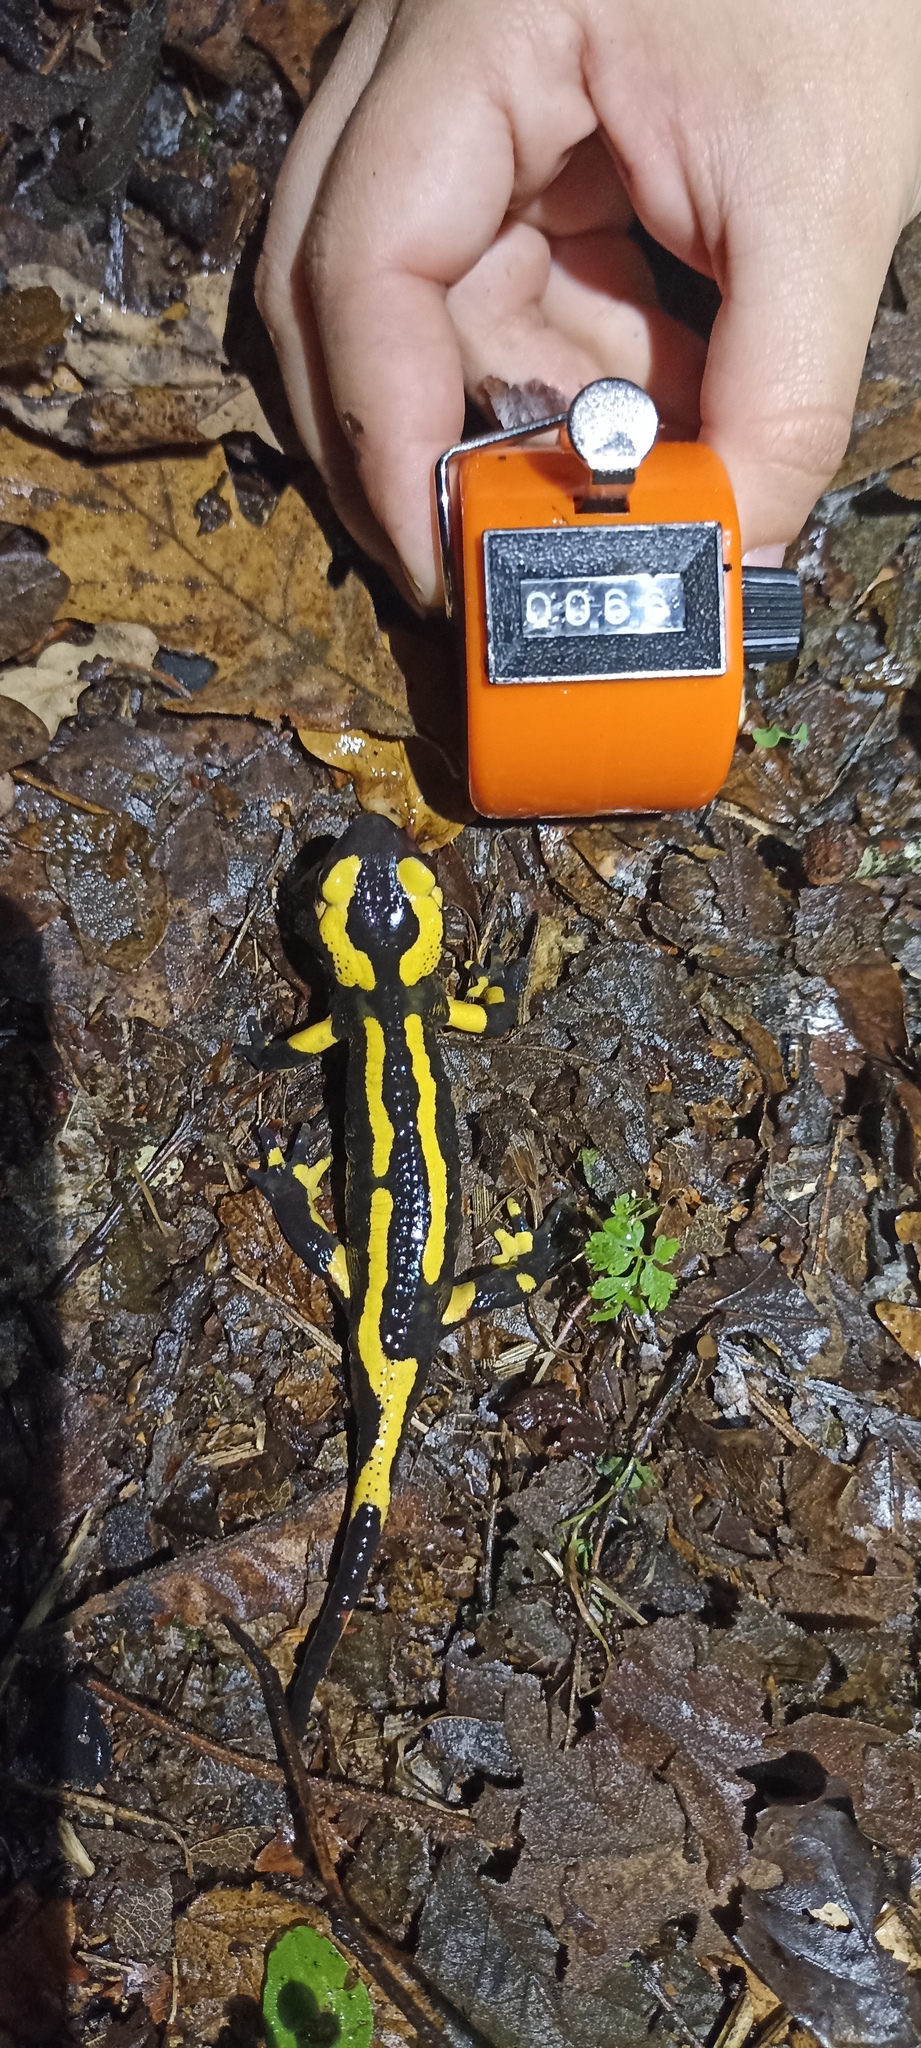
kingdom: Animalia
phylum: Chordata
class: Amphibia
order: Caudata
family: Salamandridae
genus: Salamandra
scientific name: Salamandra salamandra
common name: Fire salamander
